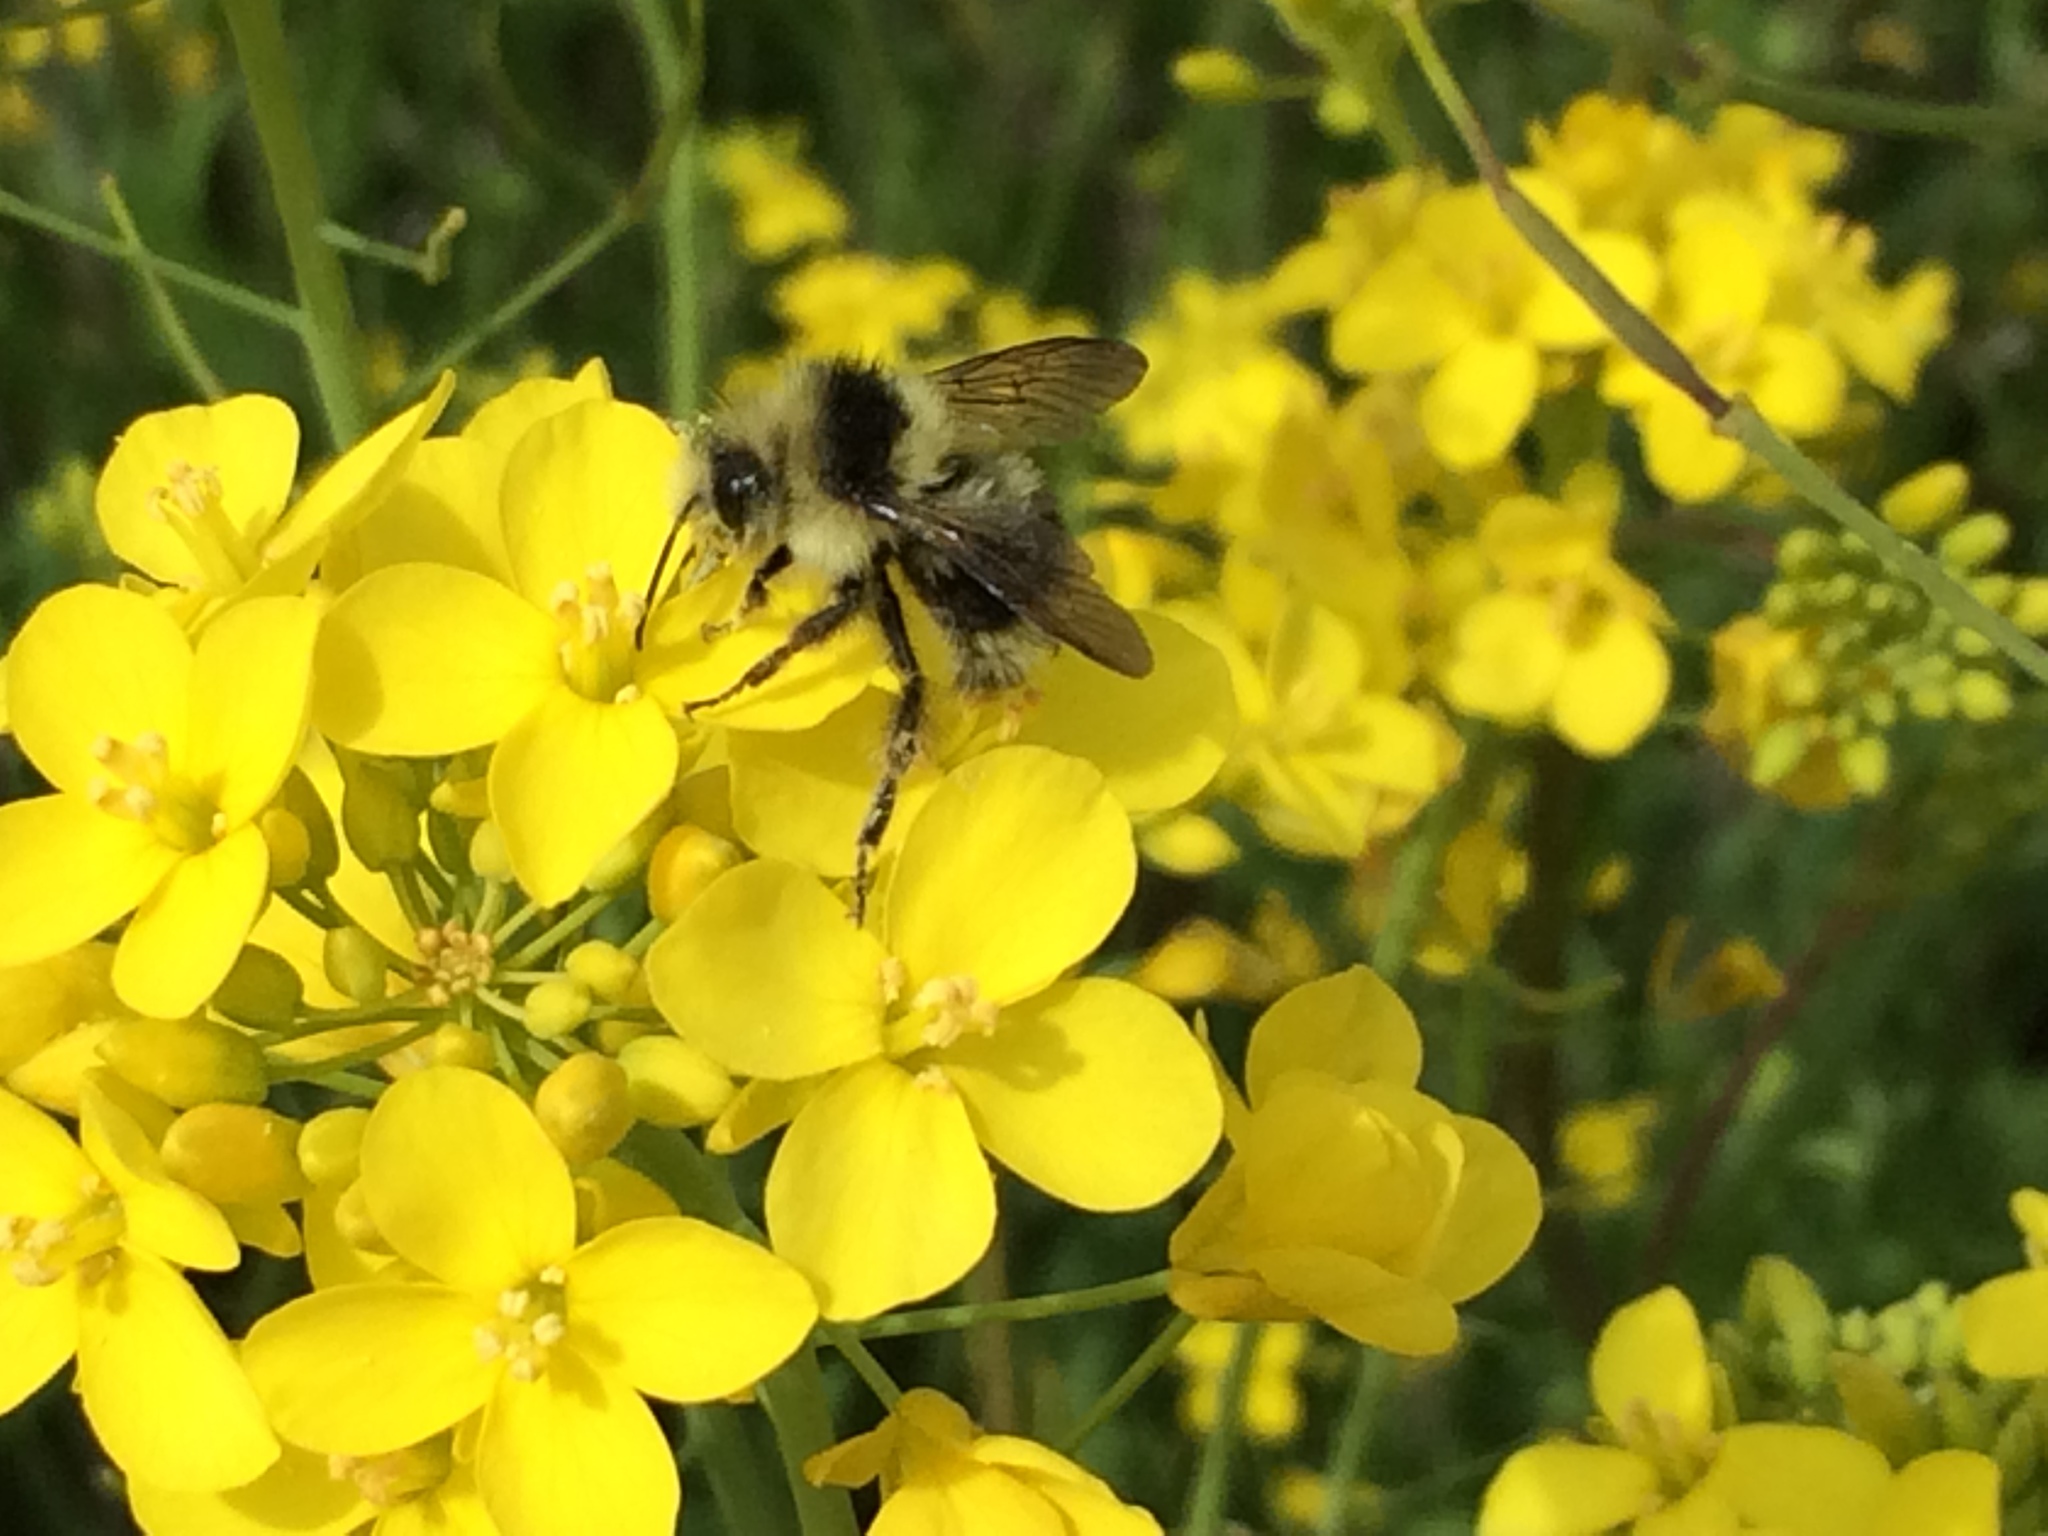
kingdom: Animalia
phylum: Arthropoda
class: Insecta
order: Hymenoptera
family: Apidae
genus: Bombus
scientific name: Bombus melanopygus
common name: Black tail bumble bee
